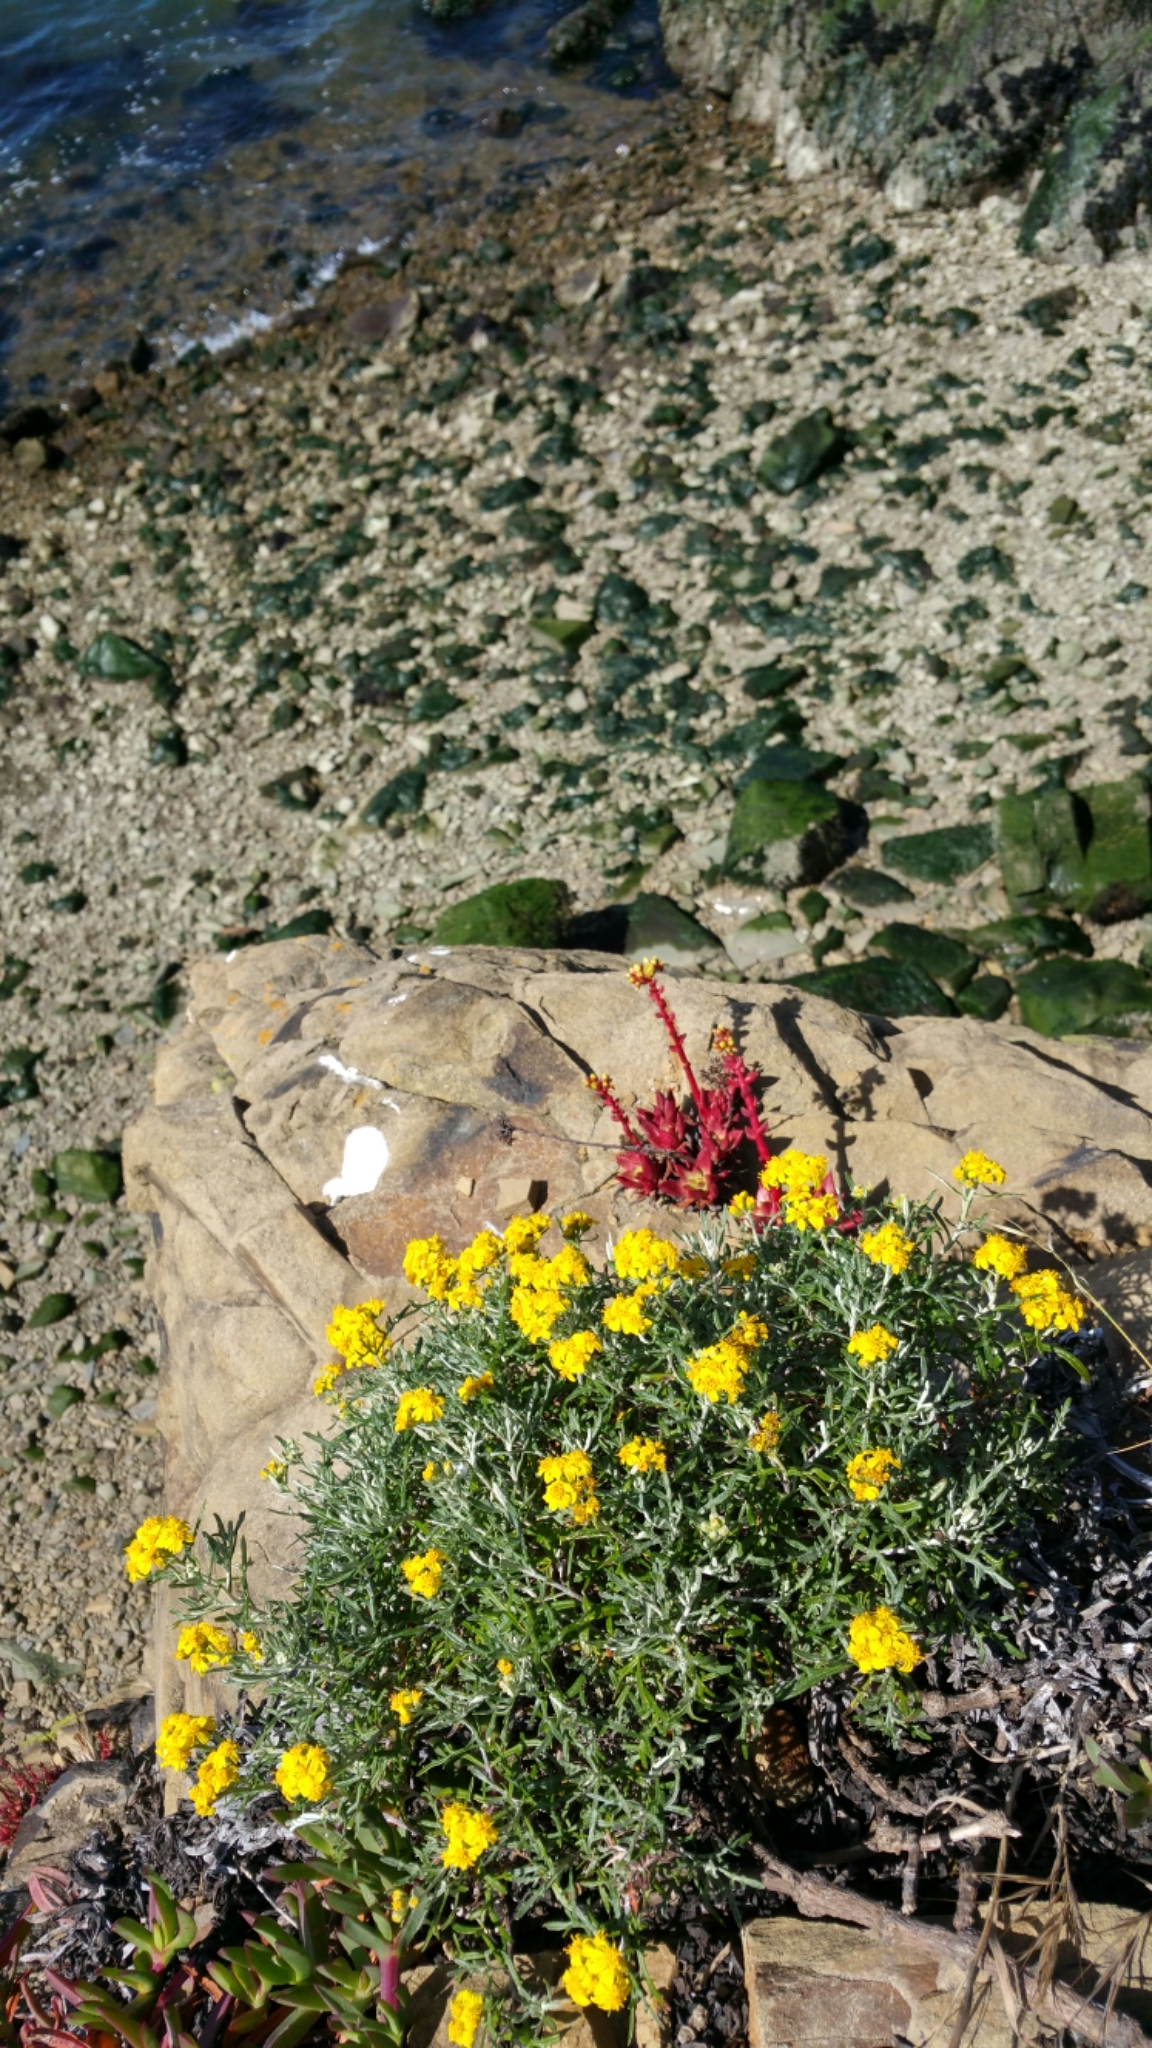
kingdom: Plantae
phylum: Tracheophyta
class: Magnoliopsida
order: Asterales
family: Asteraceae
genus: Eriophyllum
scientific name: Eriophyllum staechadifolium
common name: Lizardtail
